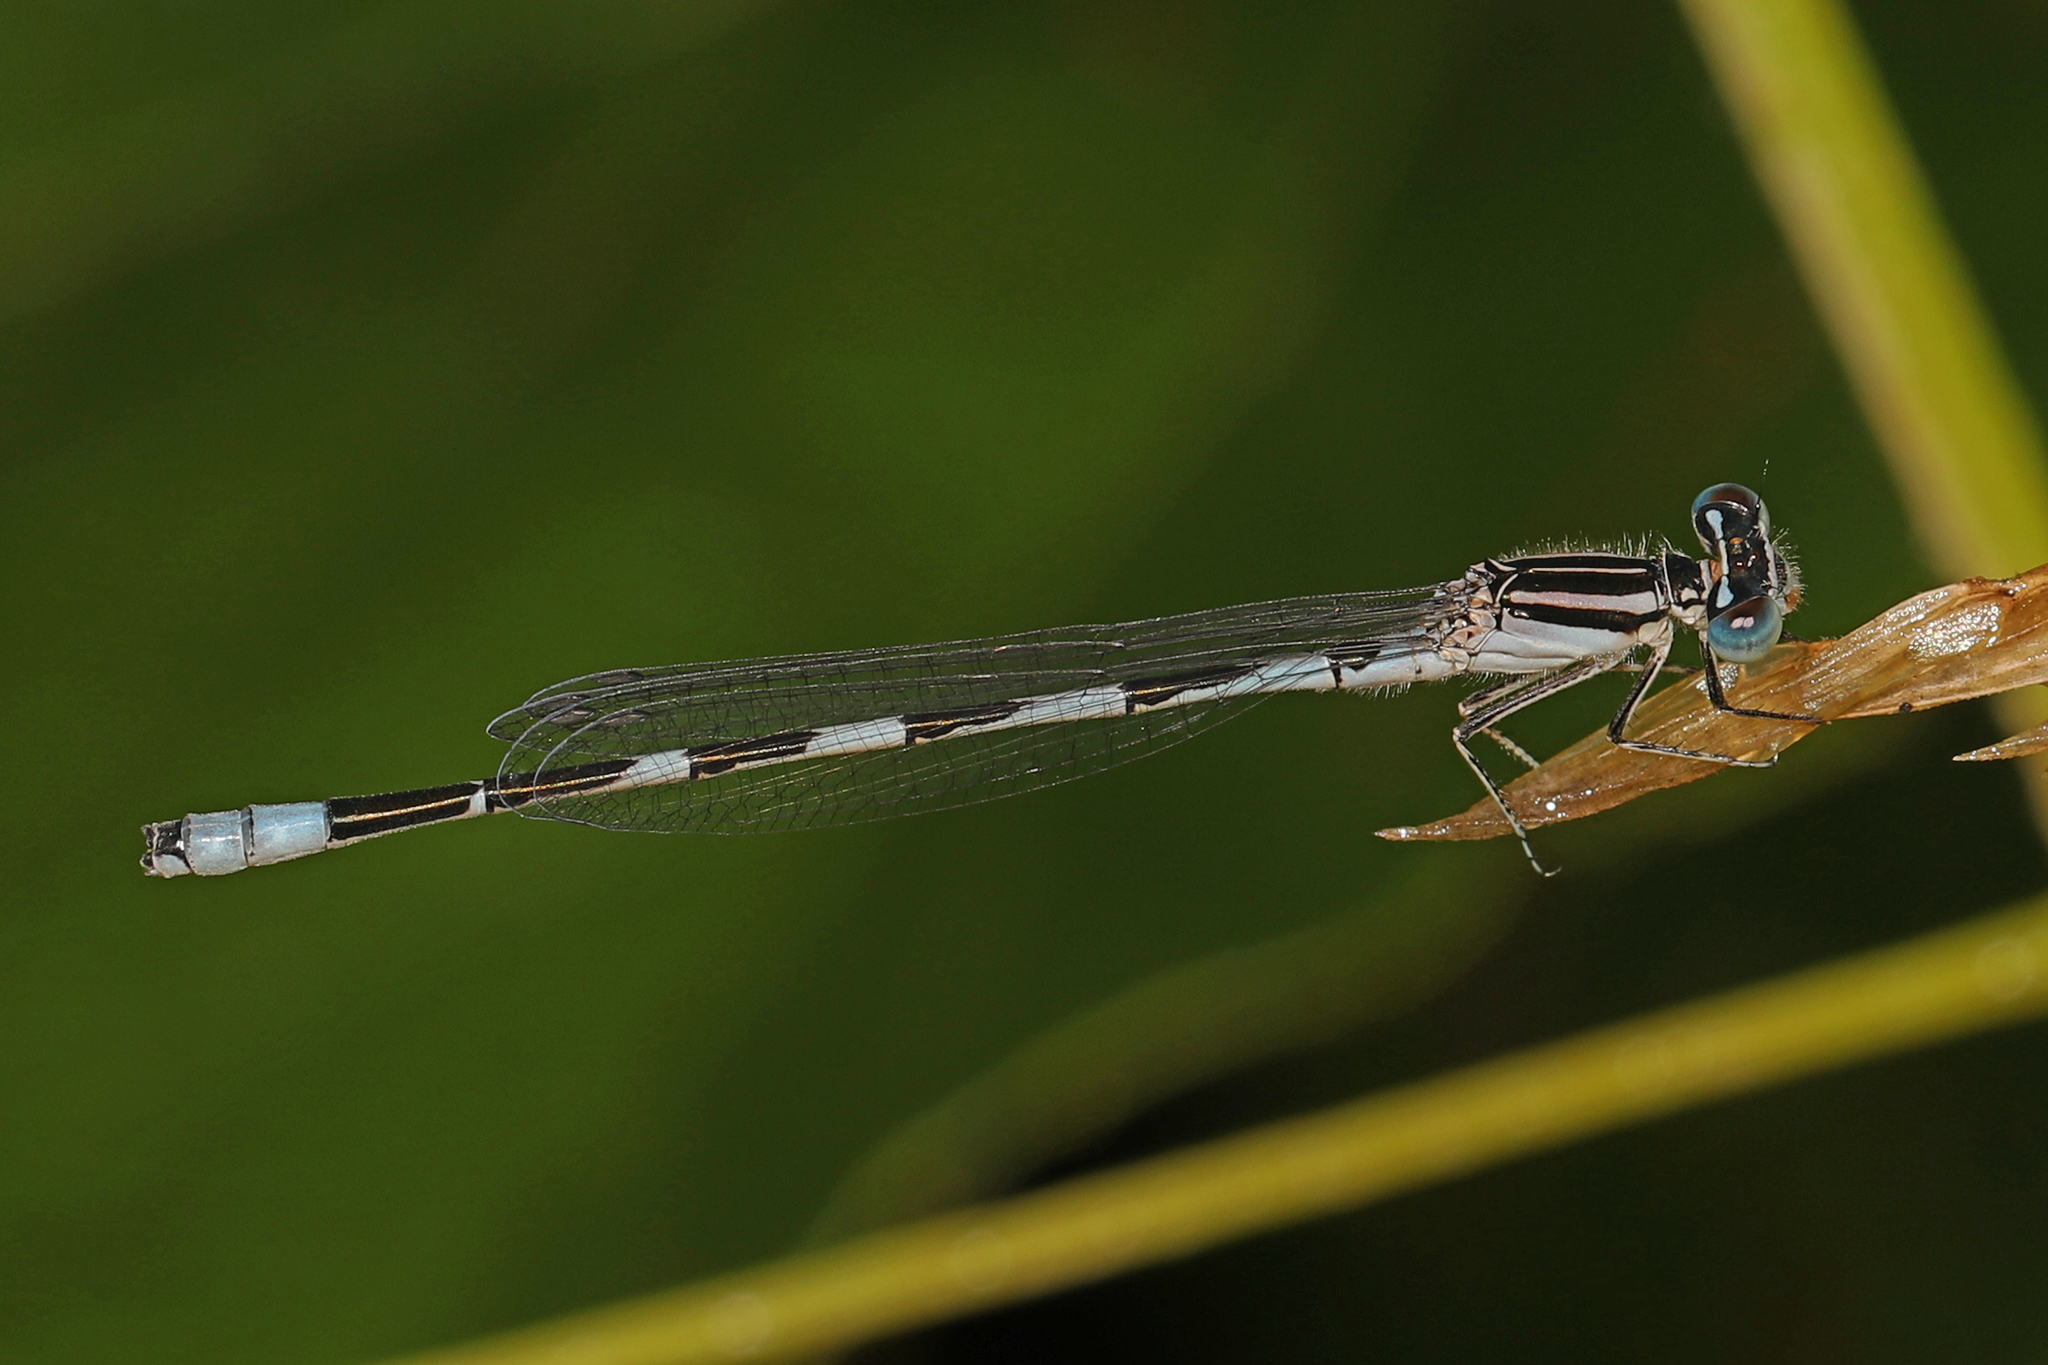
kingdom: Animalia
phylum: Arthropoda
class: Insecta
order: Odonata
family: Coenagrionidae
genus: Enallagma
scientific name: Enallagma durum
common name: Big bluet
